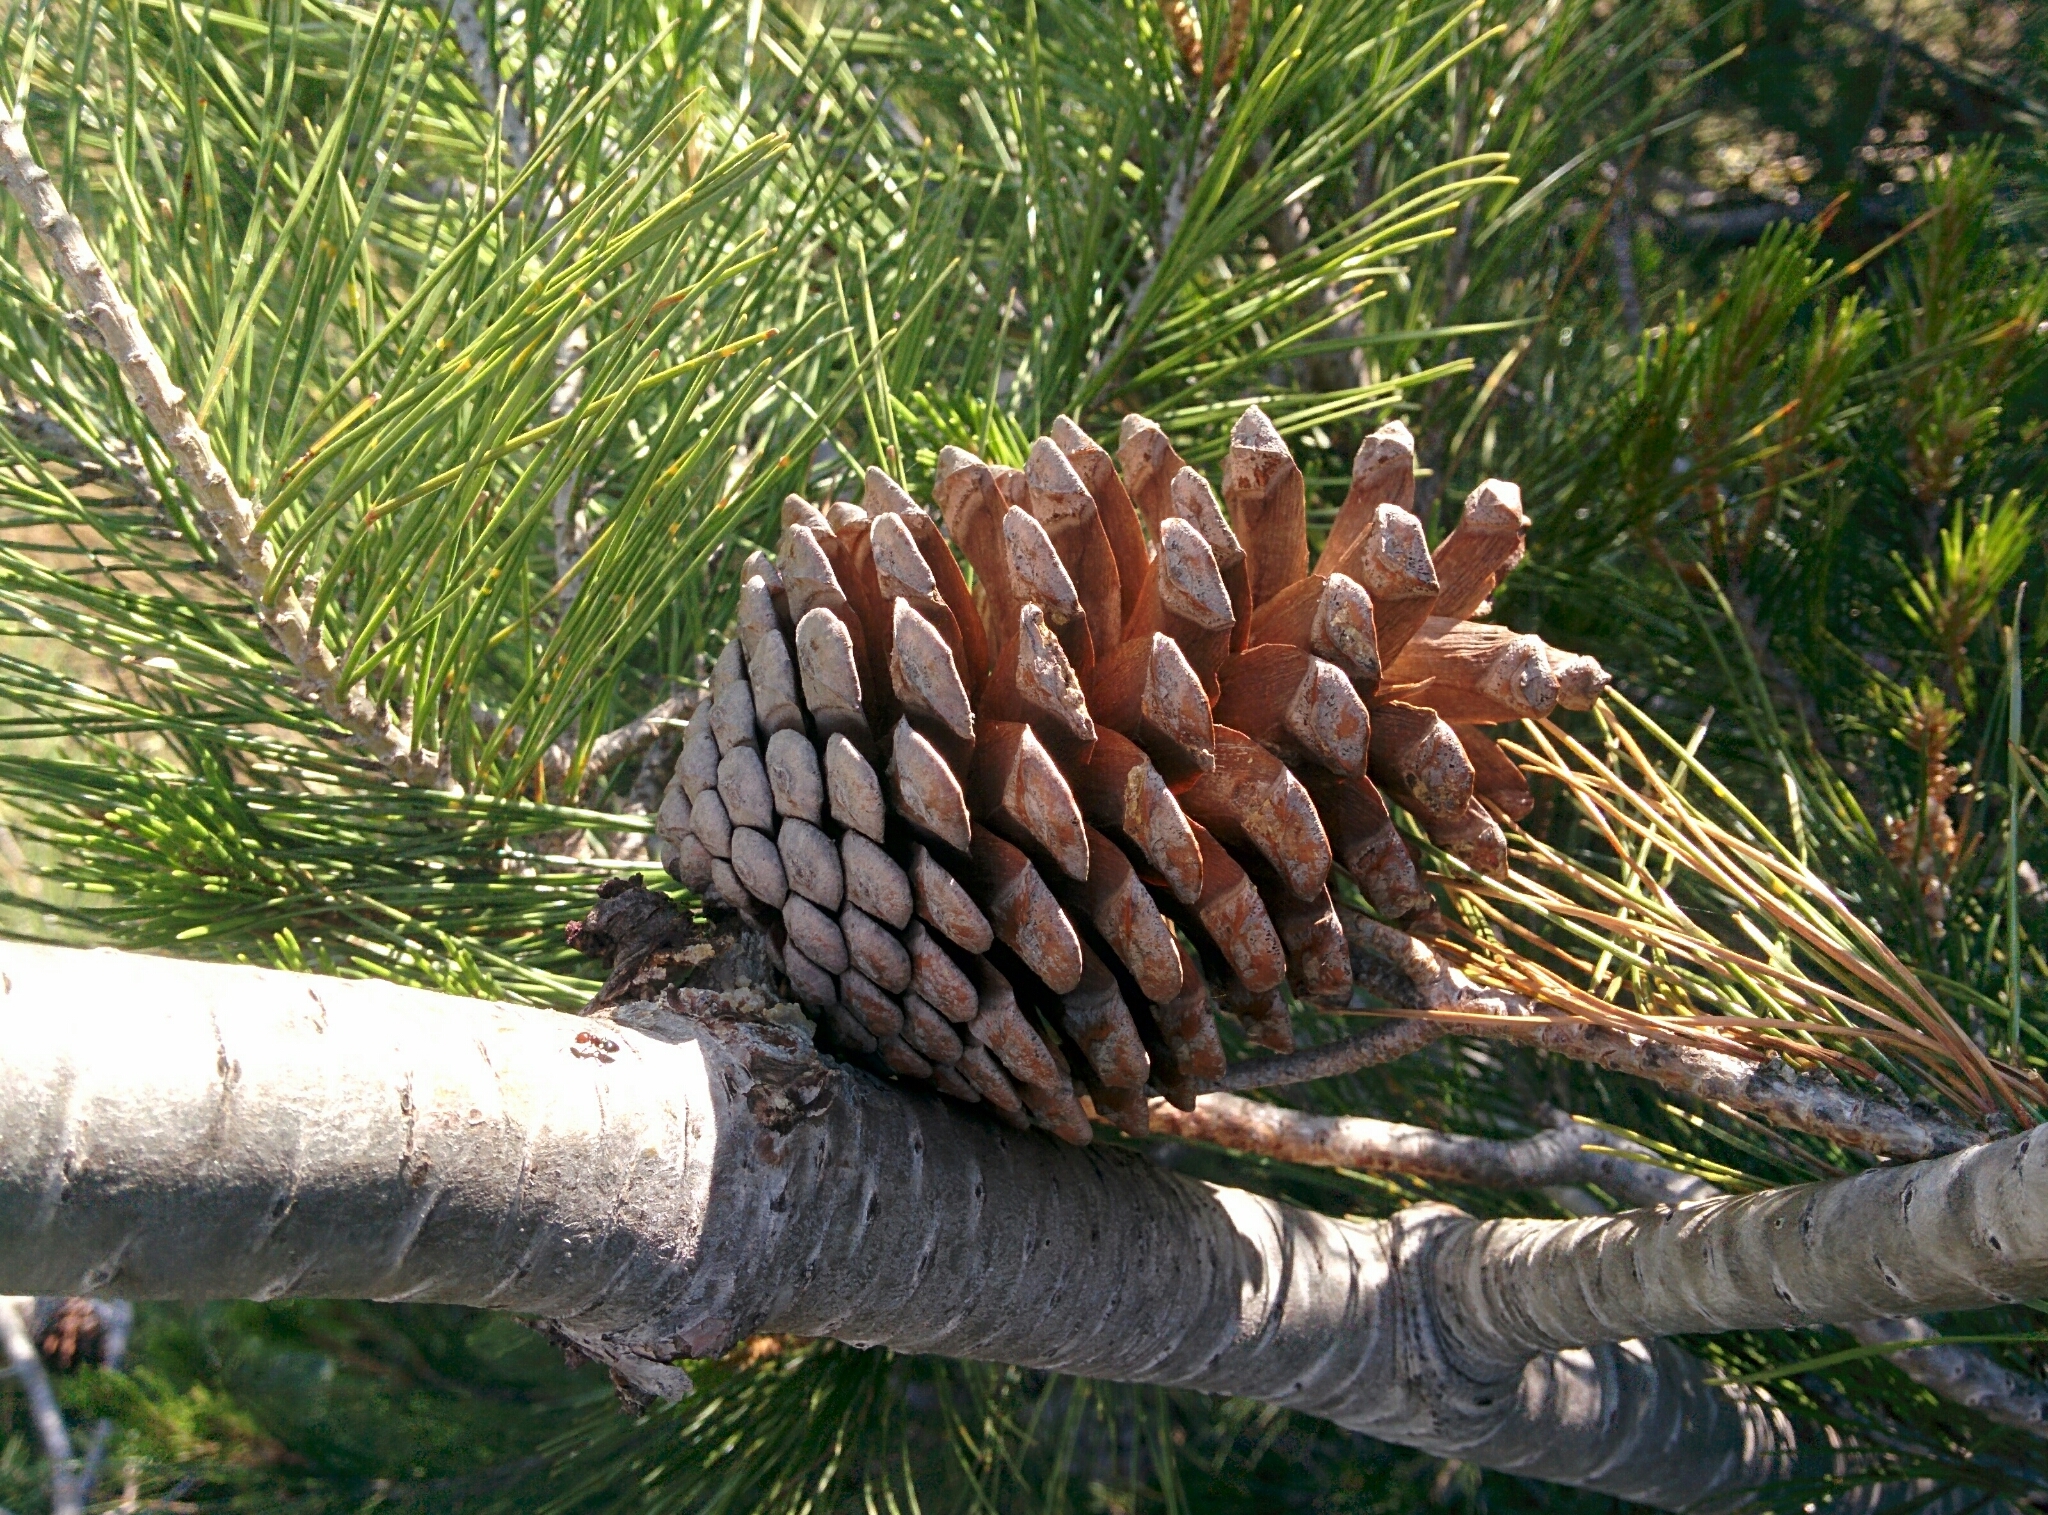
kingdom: Plantae
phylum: Tracheophyta
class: Pinopsida
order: Pinales
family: Pinaceae
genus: Pinus
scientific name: Pinus halepensis
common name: Aleppo pine
